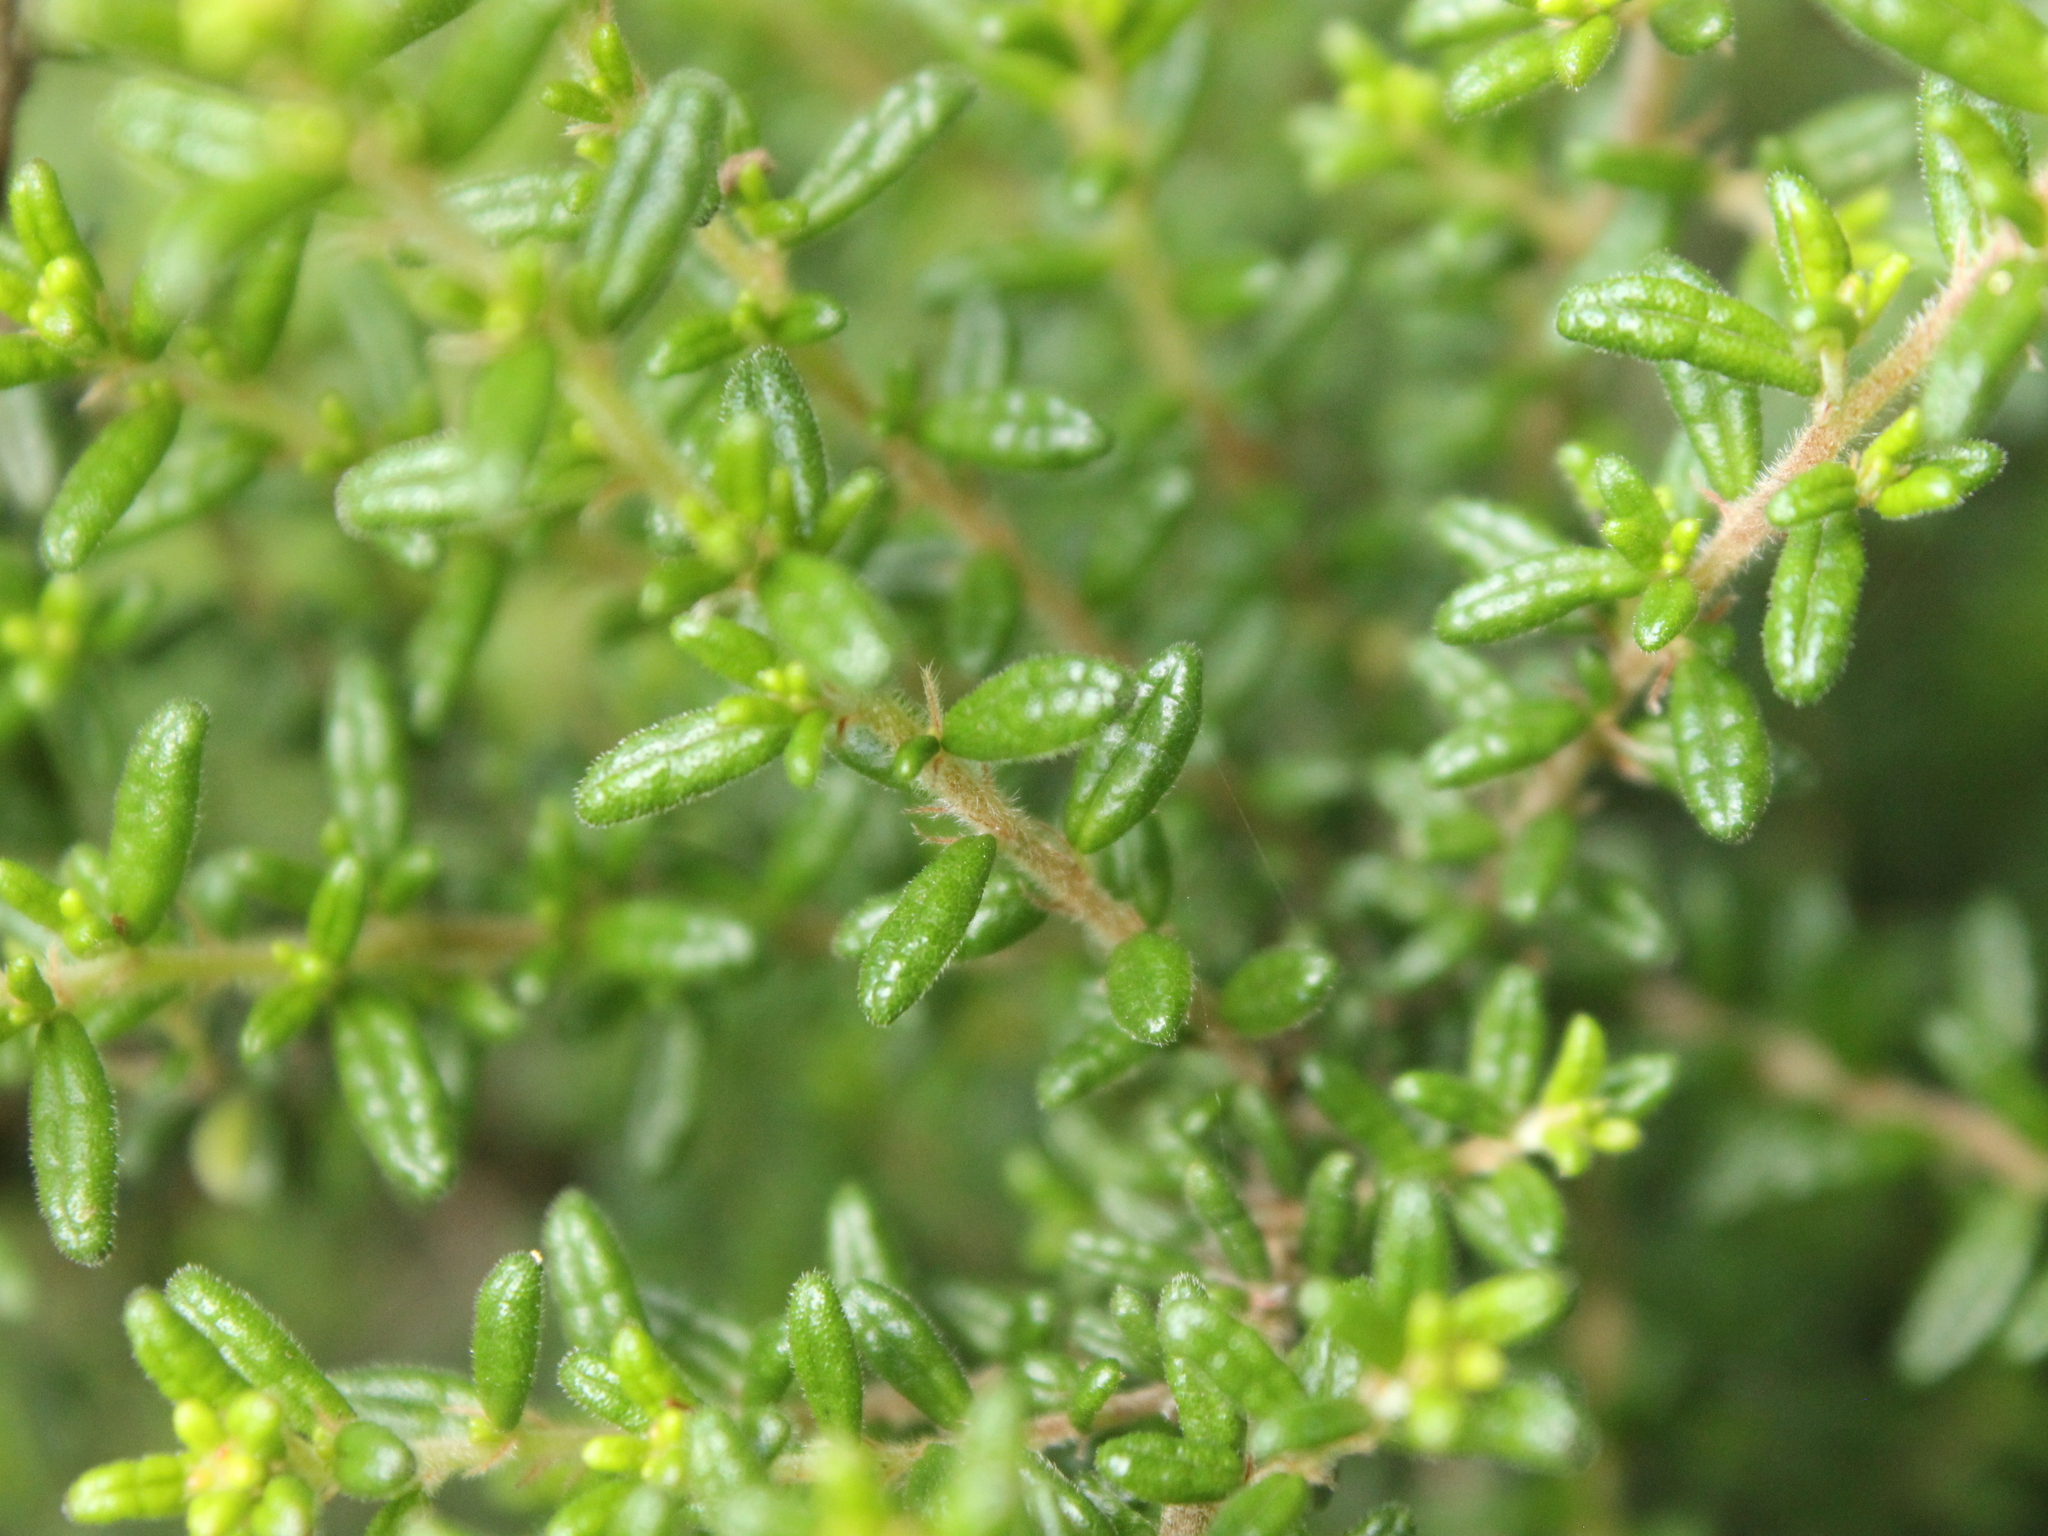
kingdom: Plantae
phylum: Tracheophyta
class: Magnoliopsida
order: Rosales
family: Rhamnaceae
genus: Pomaderris
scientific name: Pomaderris amoena
